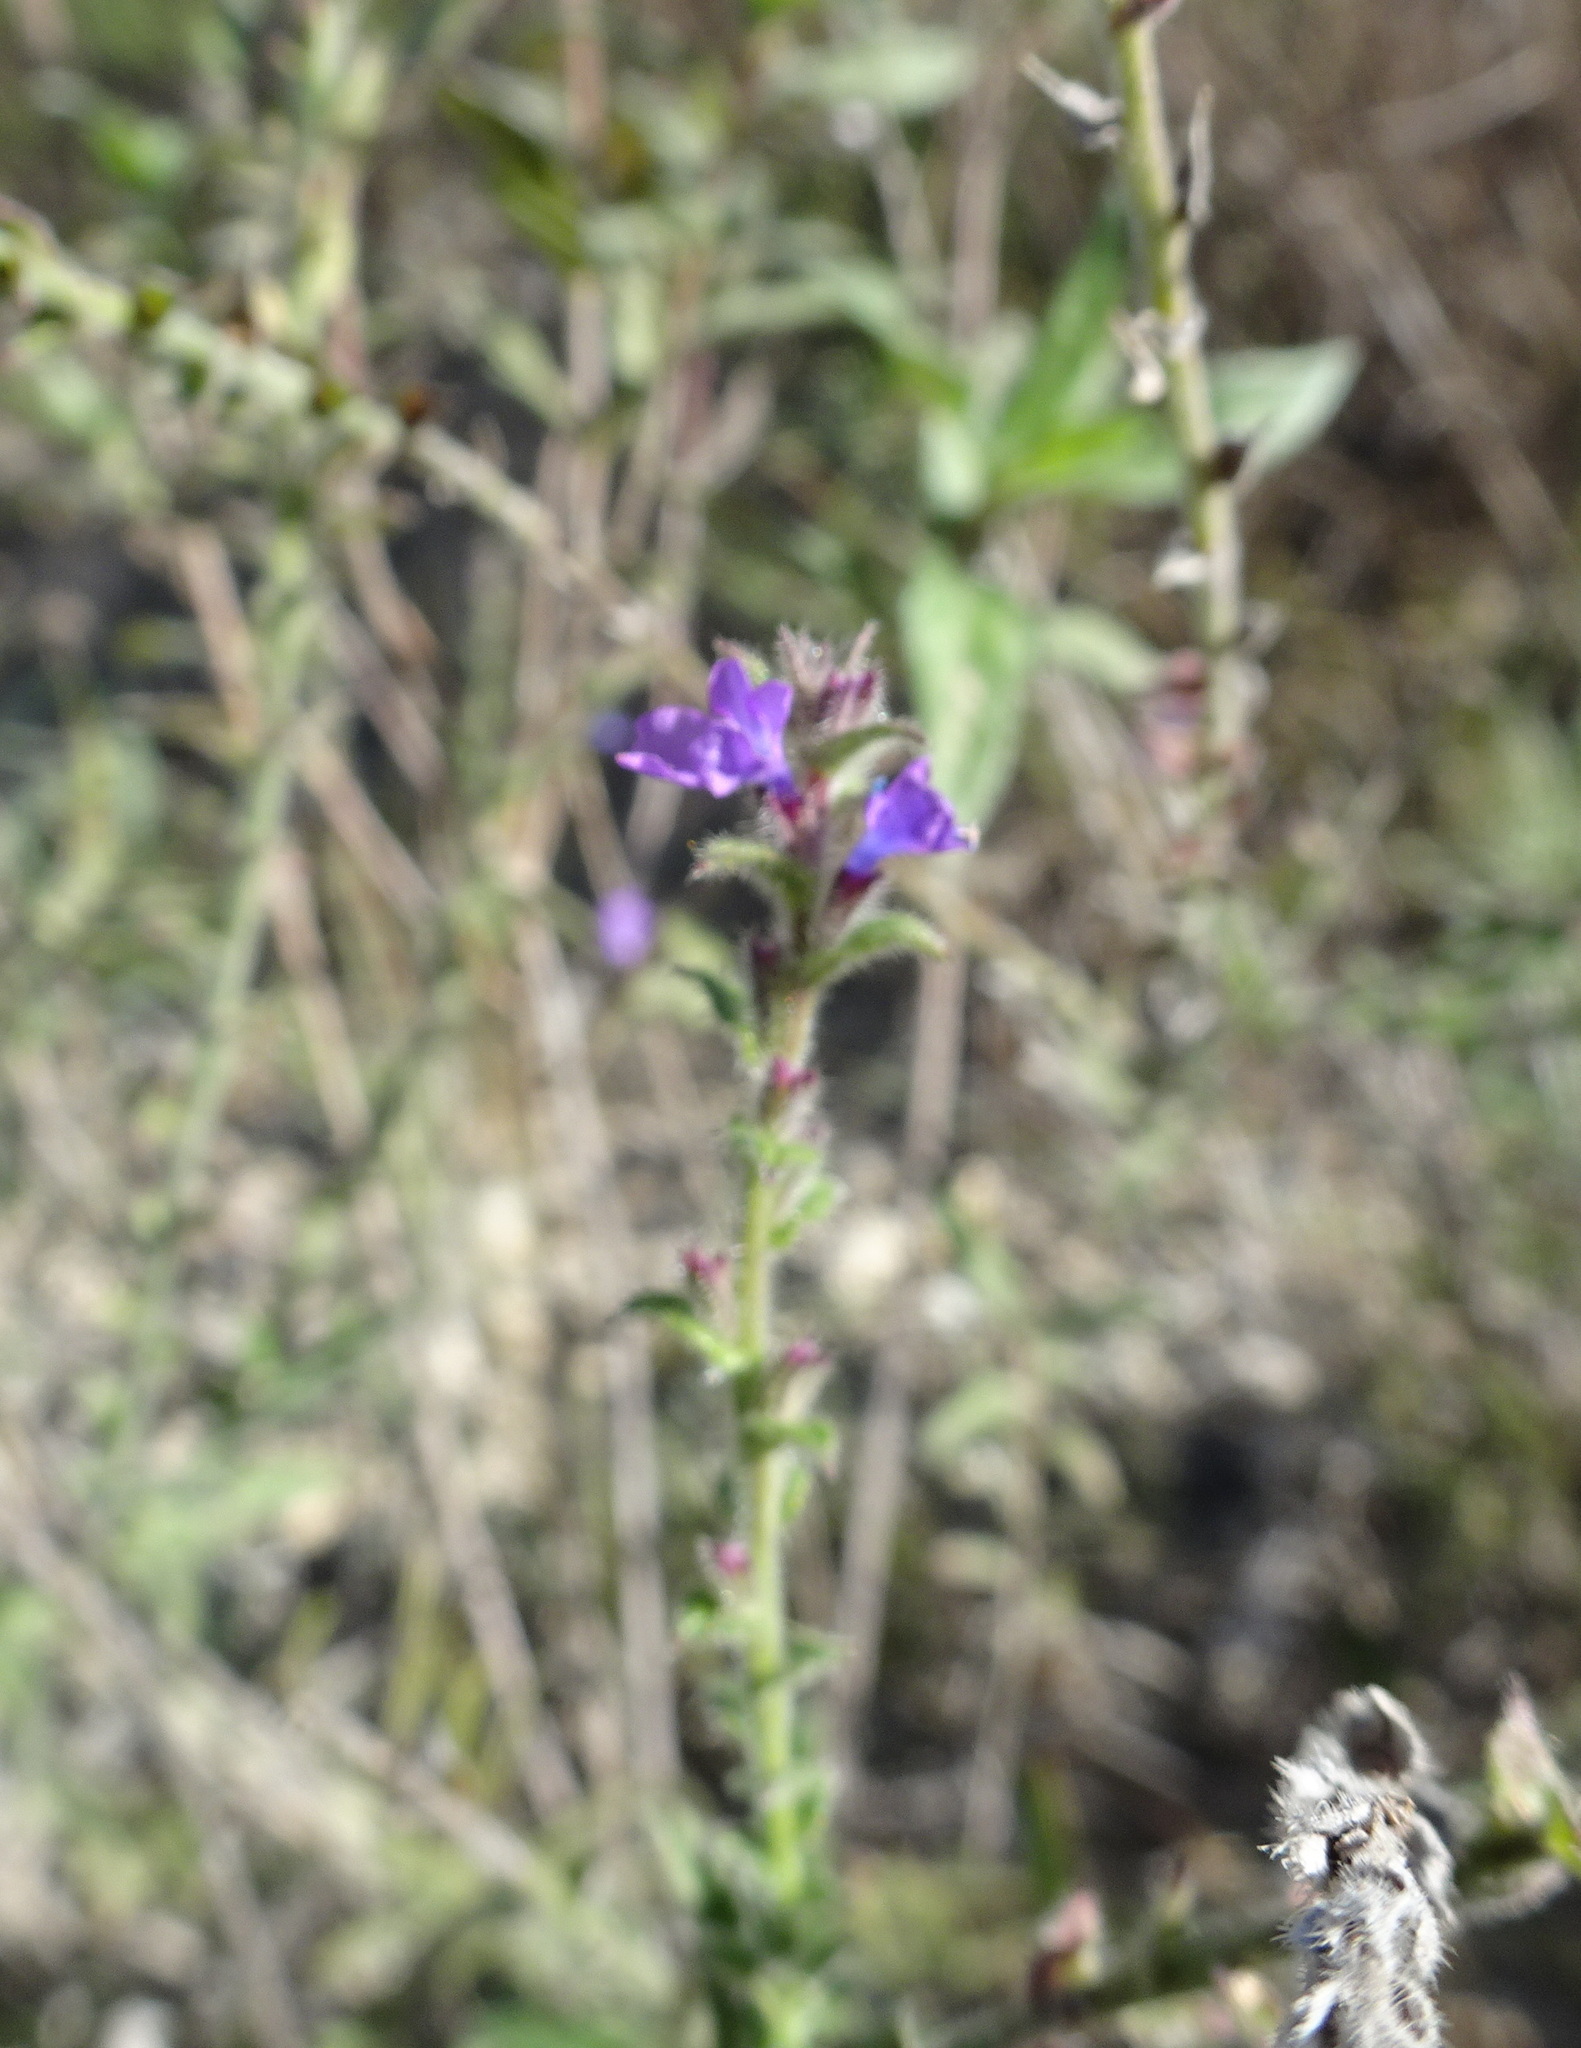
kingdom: Plantae
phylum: Tracheophyta
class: Magnoliopsida
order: Lamiales
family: Verbenaceae
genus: Verbena
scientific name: Verbena canescens
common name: Gray vervain
